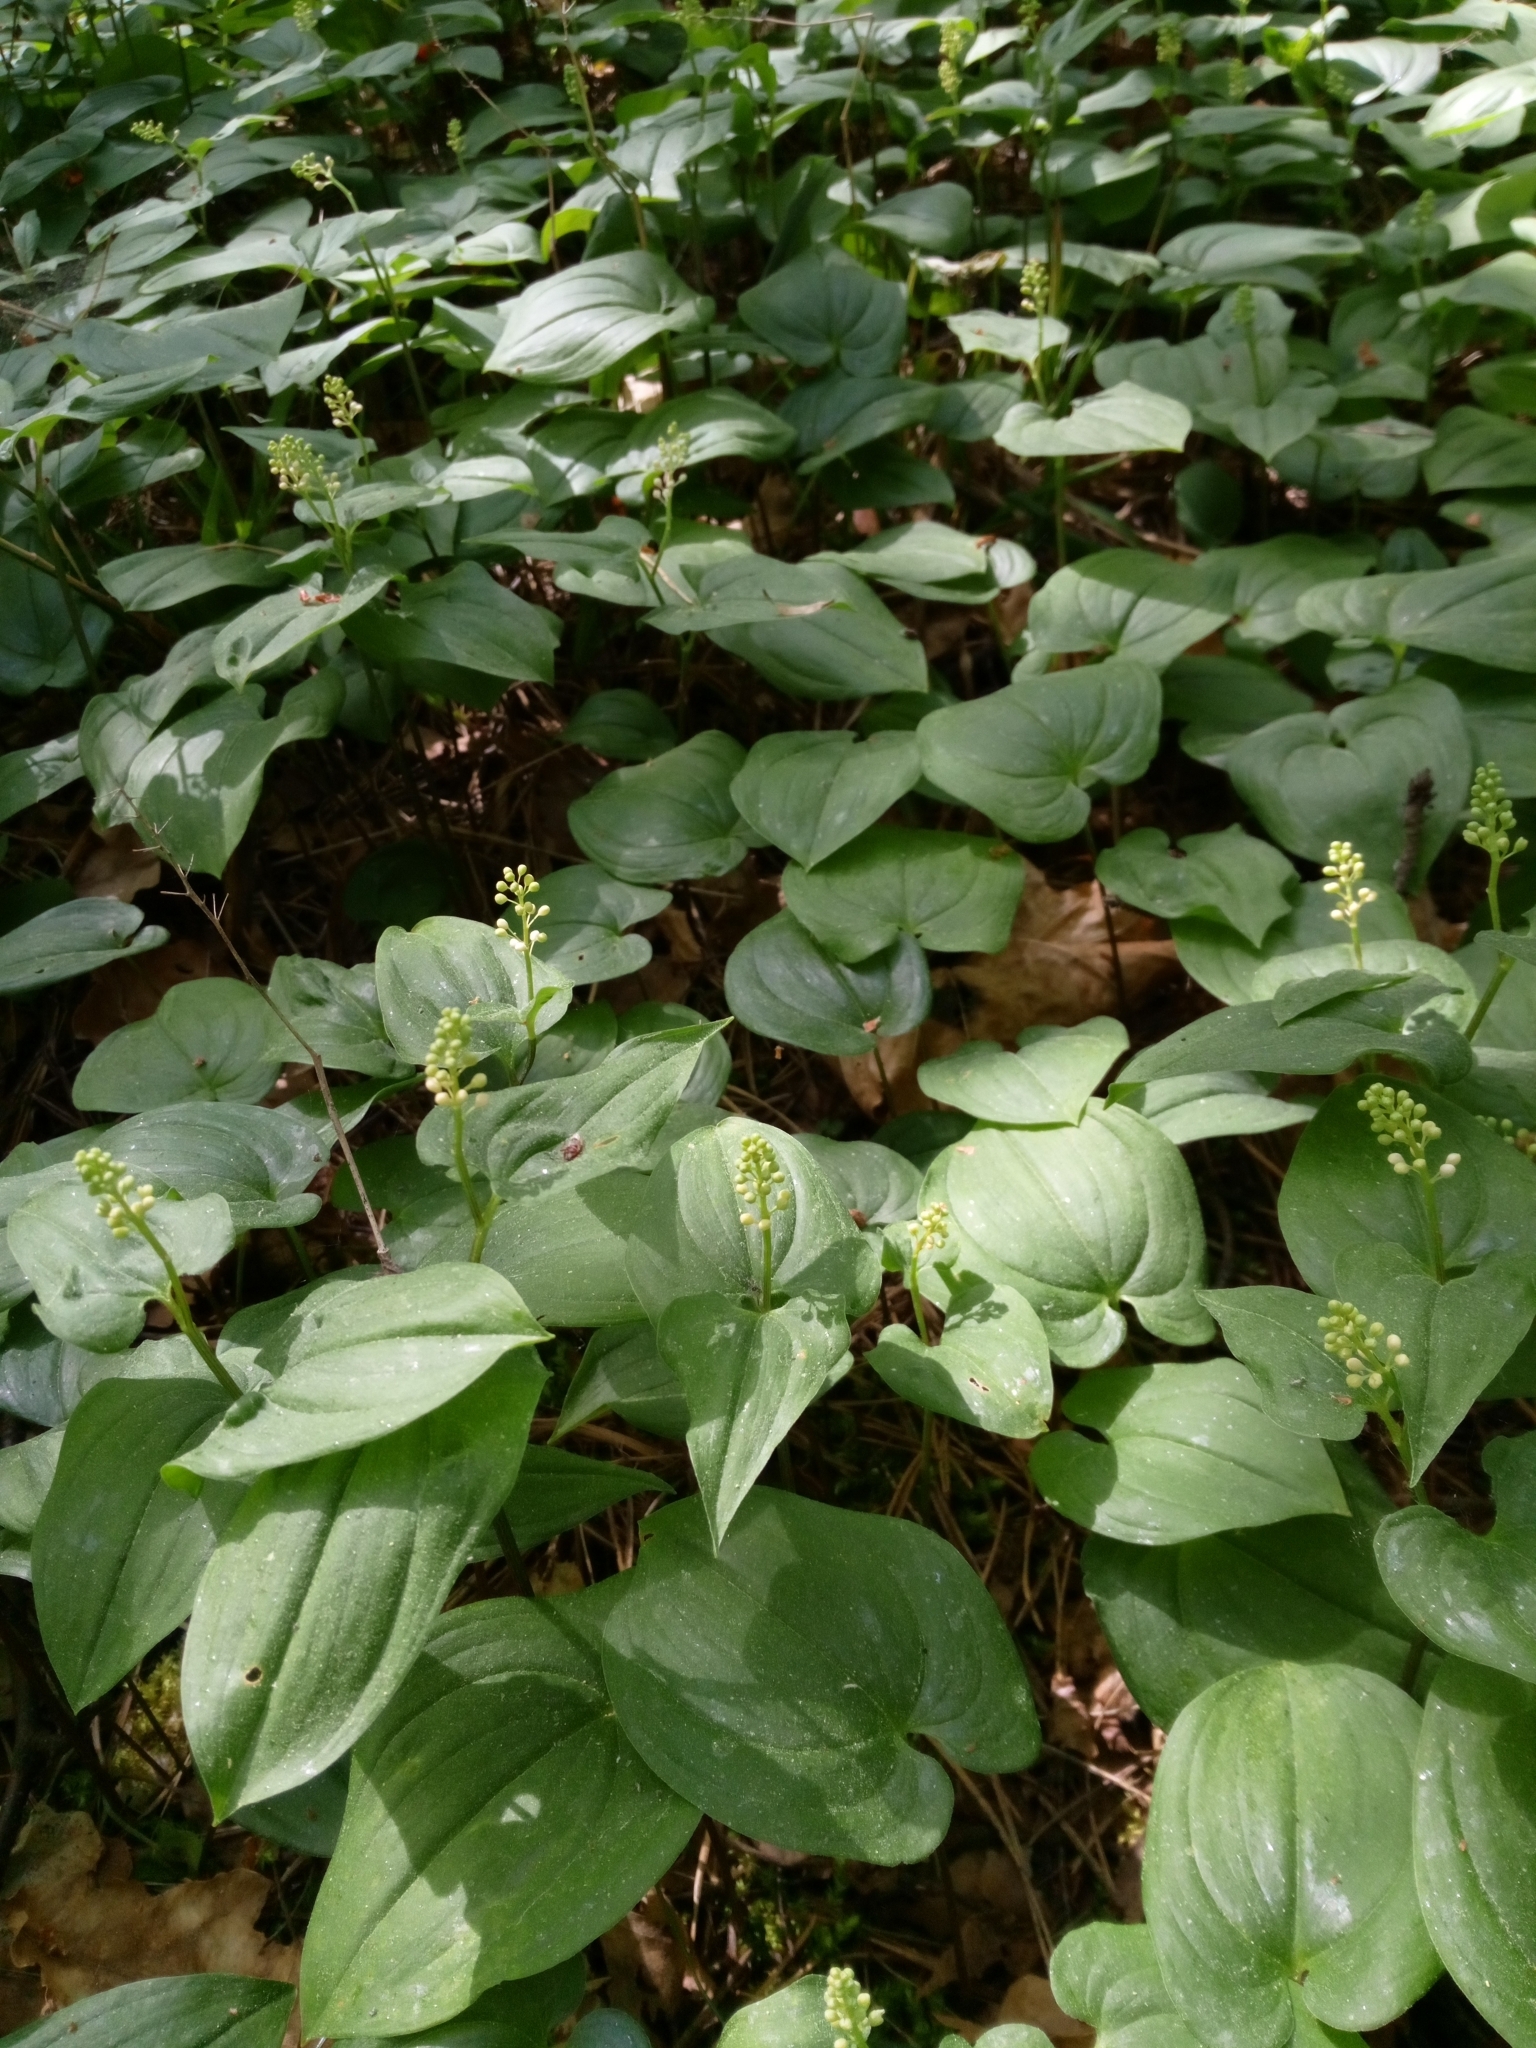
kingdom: Plantae
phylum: Tracheophyta
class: Liliopsida
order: Asparagales
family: Asparagaceae
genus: Maianthemum
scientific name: Maianthemum bifolium
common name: May lily
